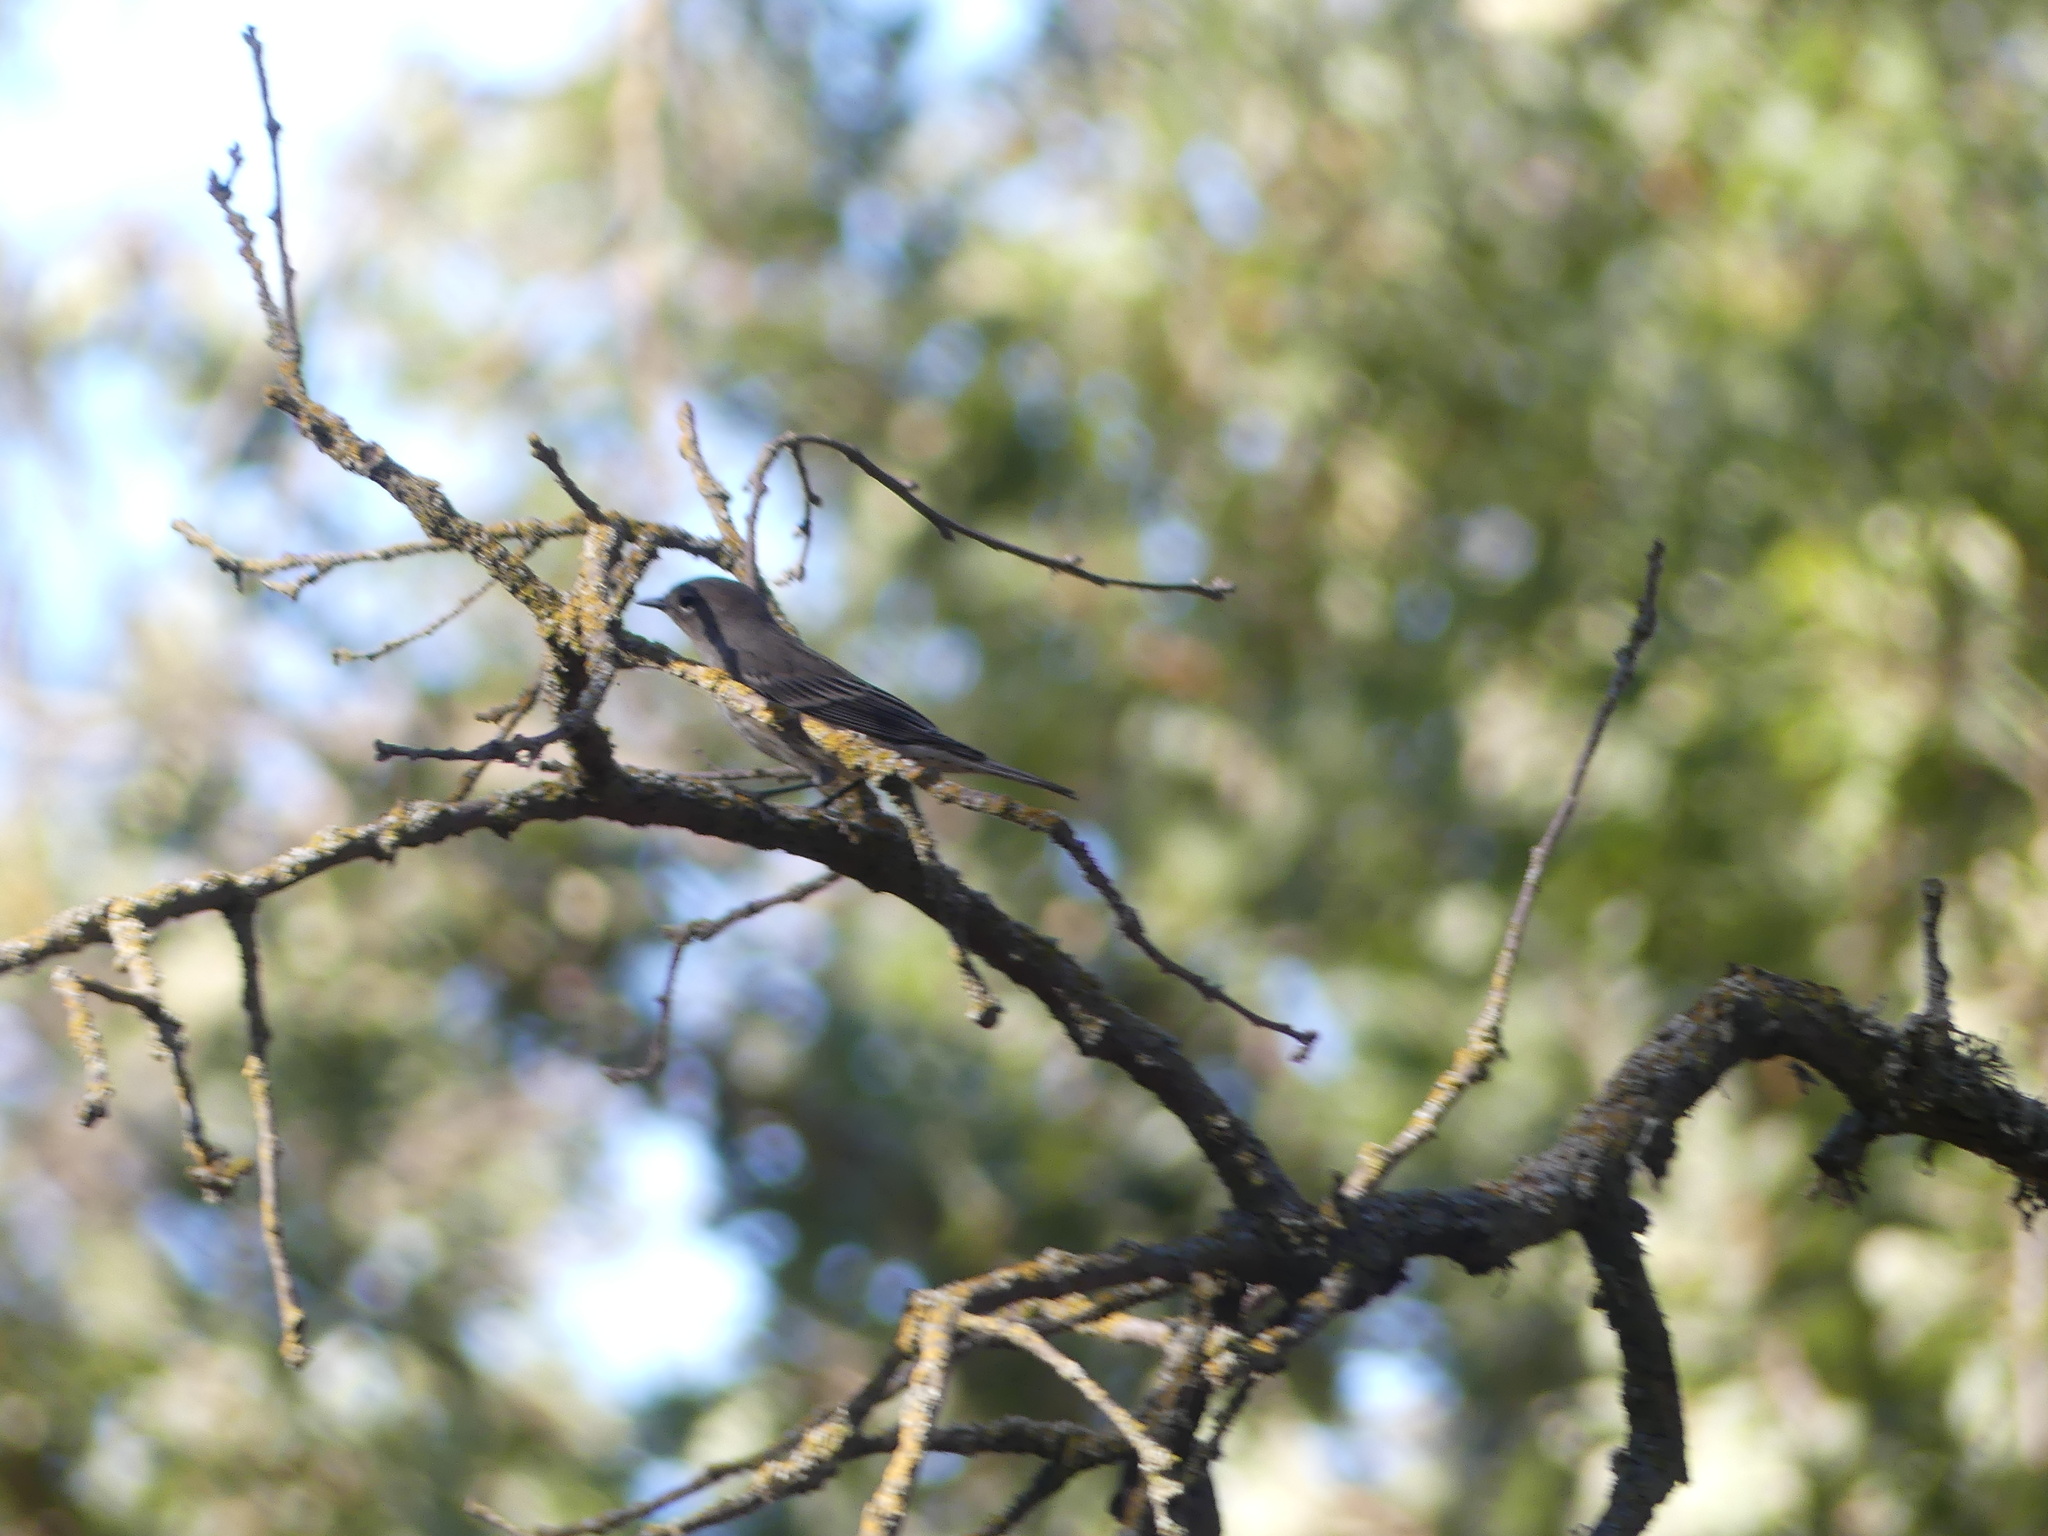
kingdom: Animalia
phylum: Chordata
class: Aves
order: Passeriformes
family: Parulidae
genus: Setophaga
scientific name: Setophaga coronata
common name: Myrtle warbler
